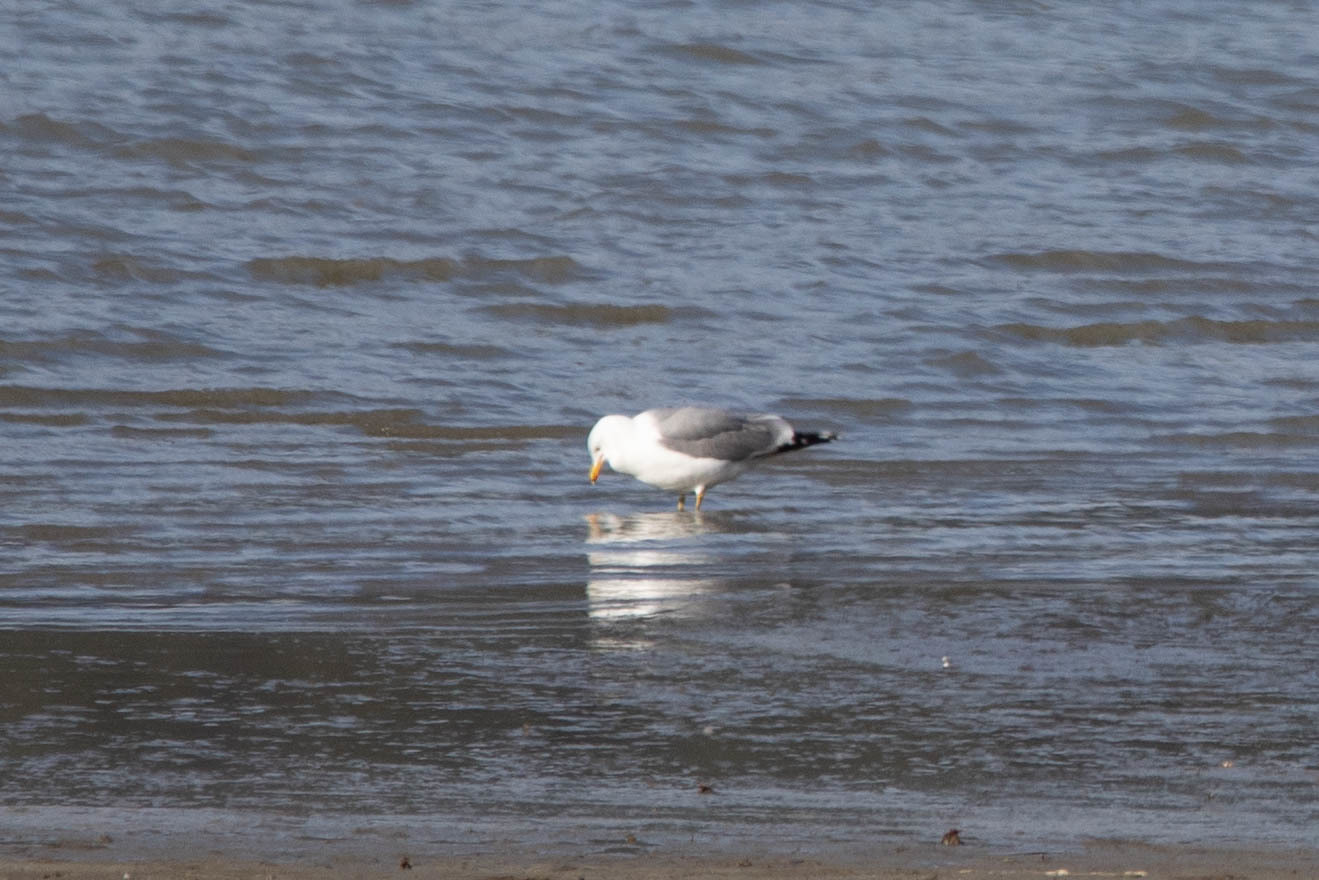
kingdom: Animalia
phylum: Chordata
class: Aves
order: Charadriiformes
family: Laridae
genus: Larus
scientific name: Larus californicus
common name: California gull
